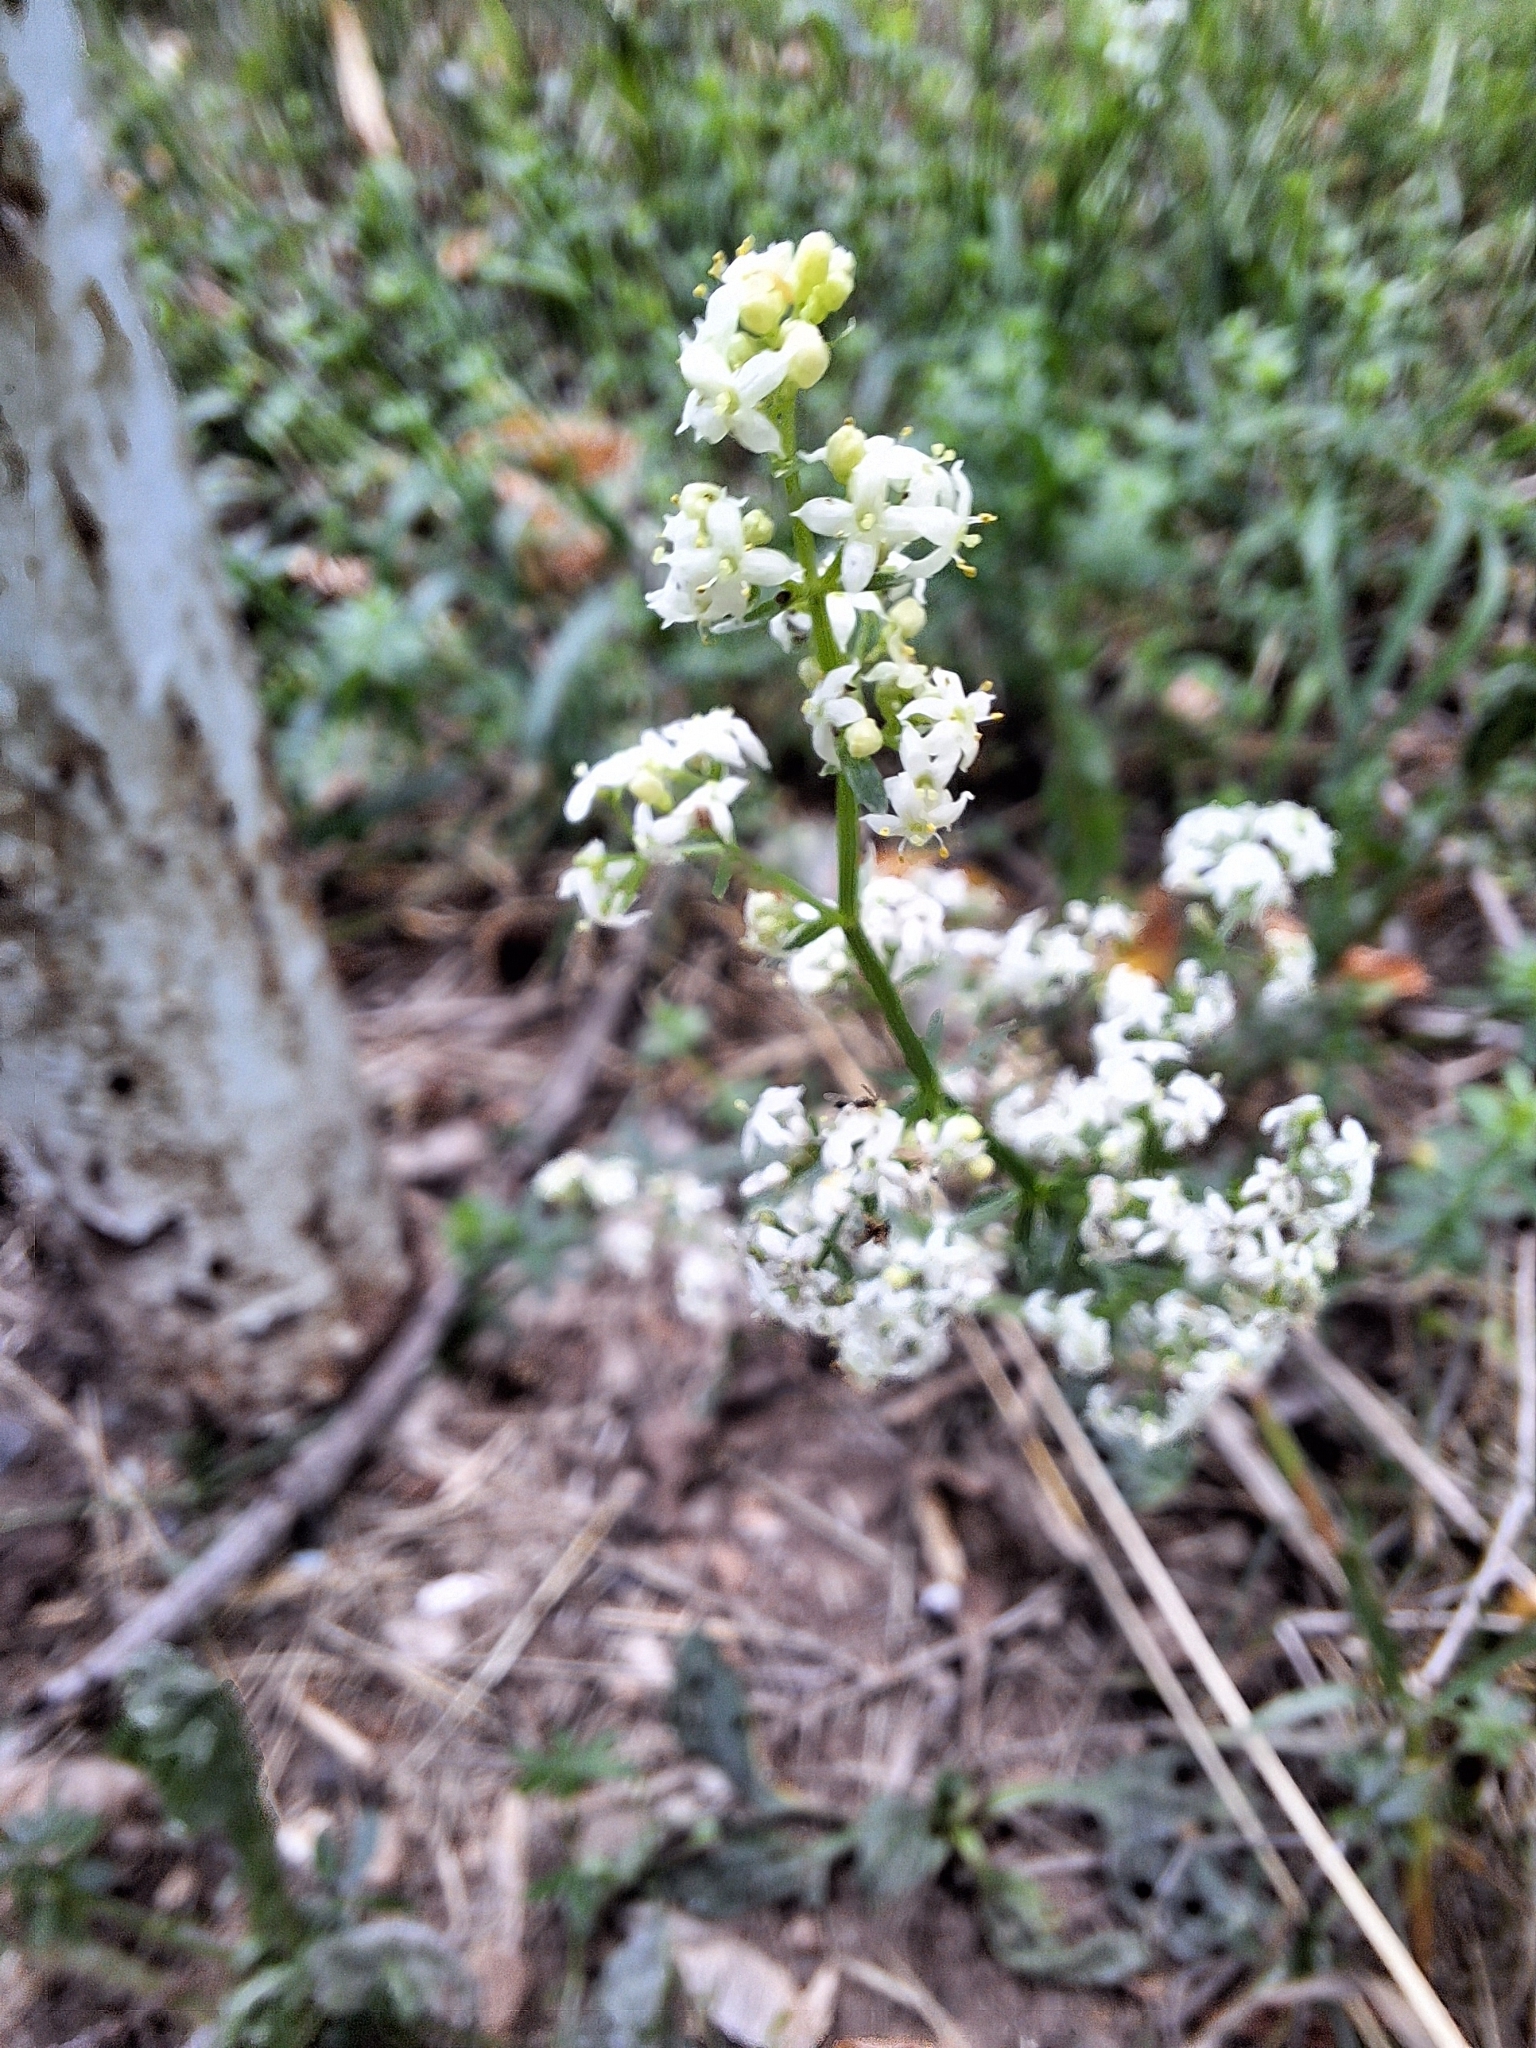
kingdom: Plantae
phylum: Tracheophyta
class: Magnoliopsida
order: Gentianales
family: Rubiaceae
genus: Galium
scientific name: Galium mollugo
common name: Hedge bedstraw
